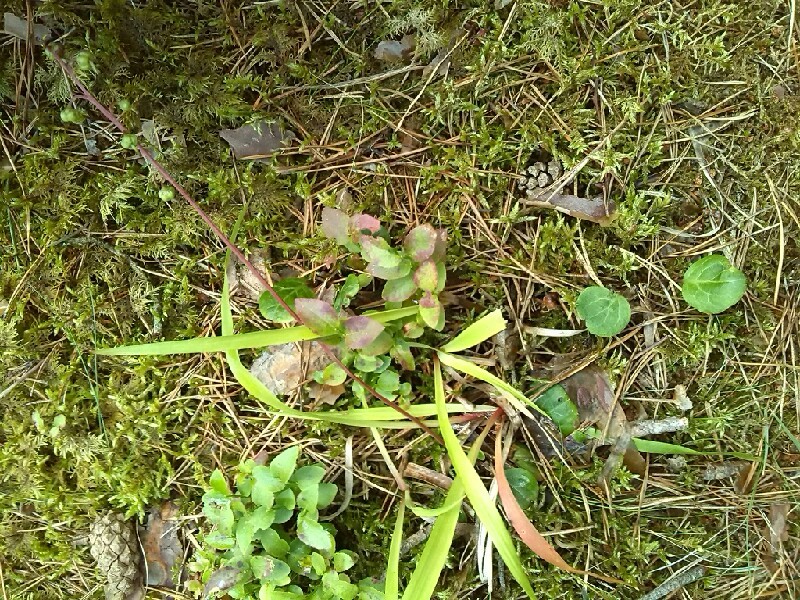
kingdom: Plantae
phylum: Tracheophyta
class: Magnoliopsida
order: Ericales
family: Ericaceae
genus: Pyrola
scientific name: Pyrola chlorantha
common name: Green wintergreen
